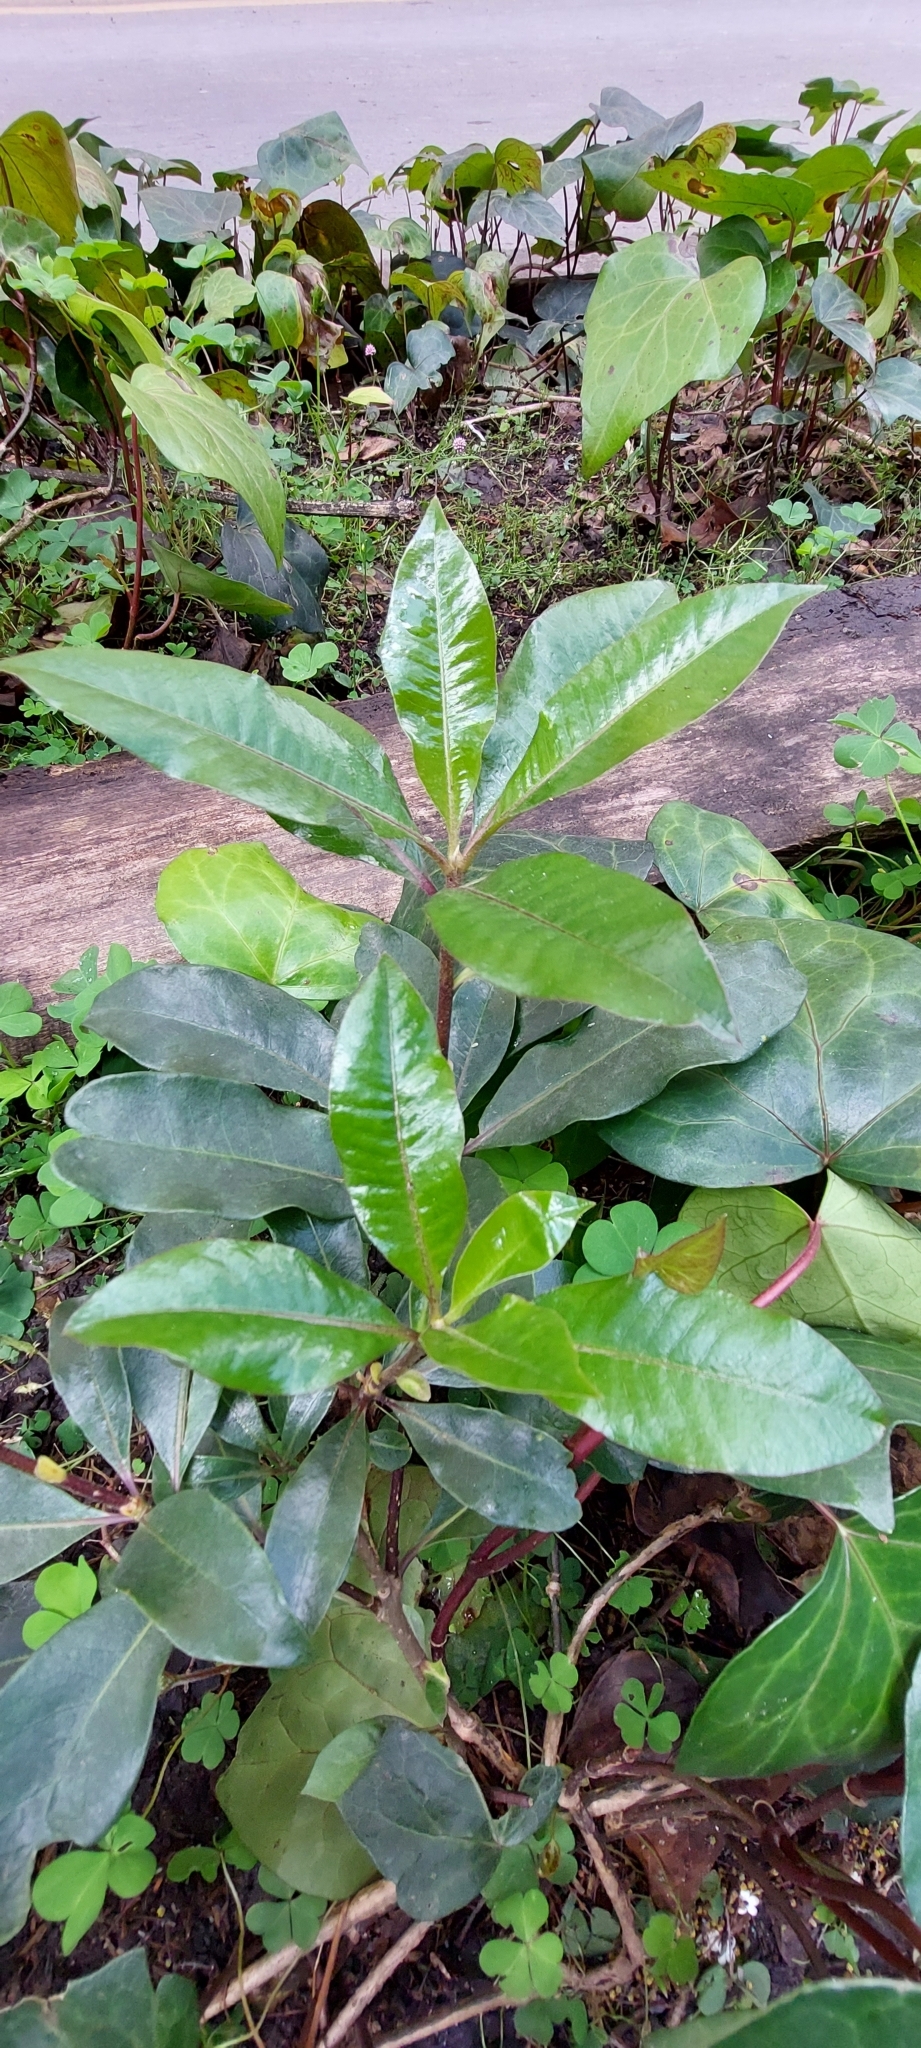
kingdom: Plantae
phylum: Tracheophyta
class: Magnoliopsida
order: Apiales
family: Pittosporaceae
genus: Pittosporum
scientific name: Pittosporum undulatum
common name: Australian cheesewood
